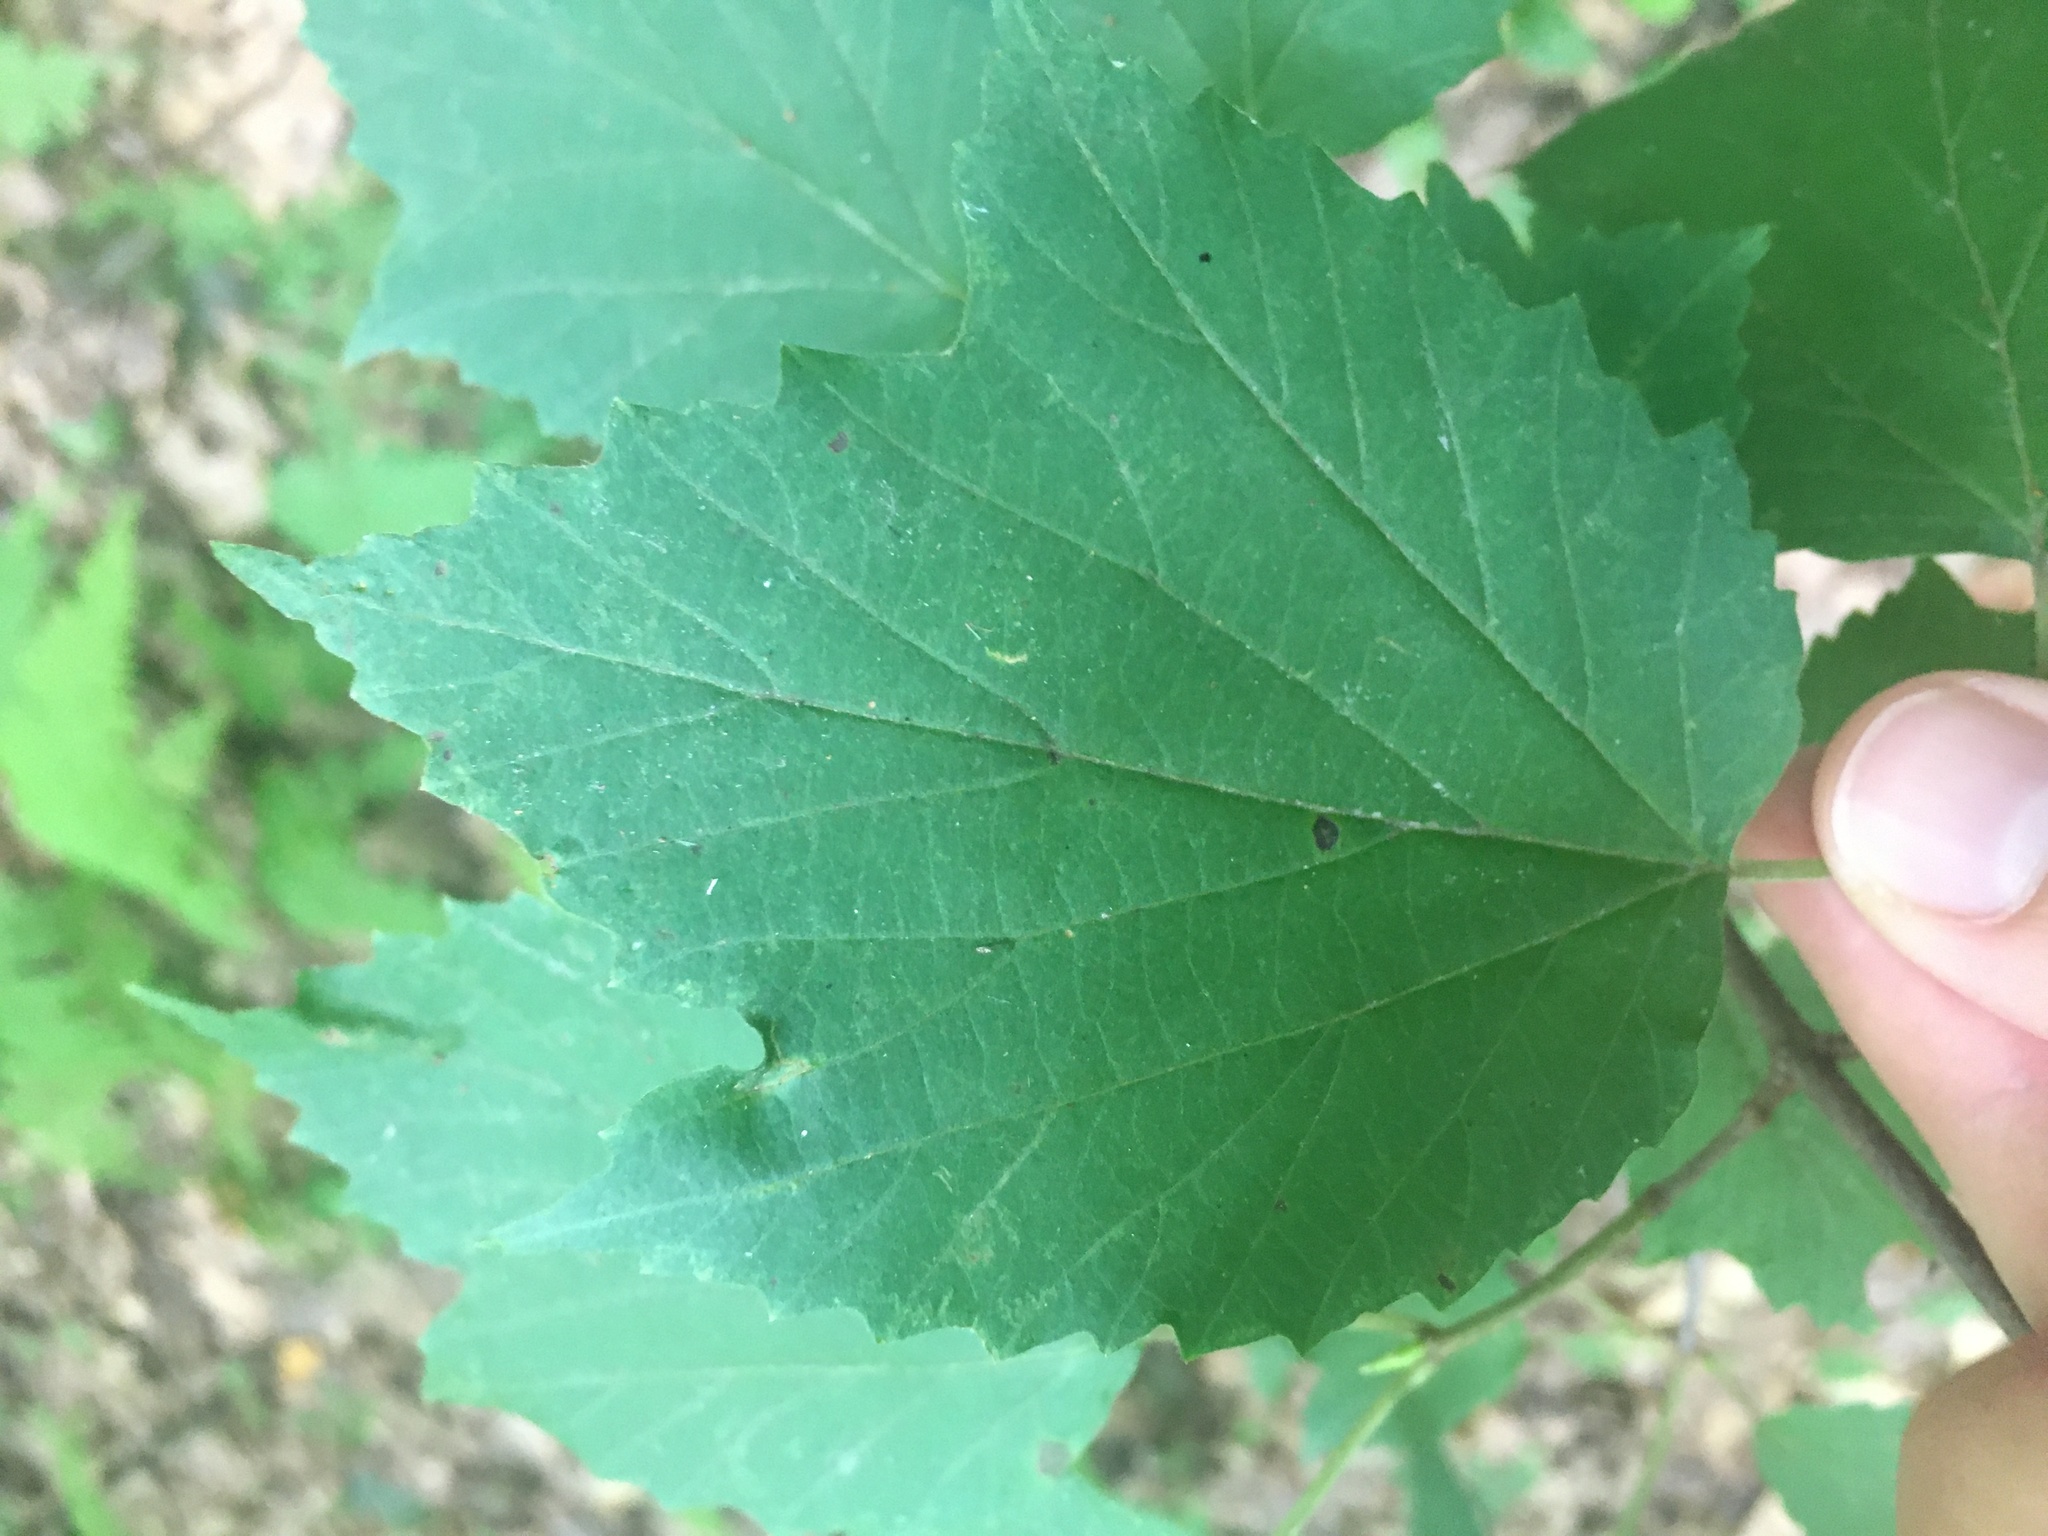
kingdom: Plantae
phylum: Tracheophyta
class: Magnoliopsida
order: Dipsacales
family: Viburnaceae
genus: Viburnum
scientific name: Viburnum acerifolium
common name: Dockmackie
